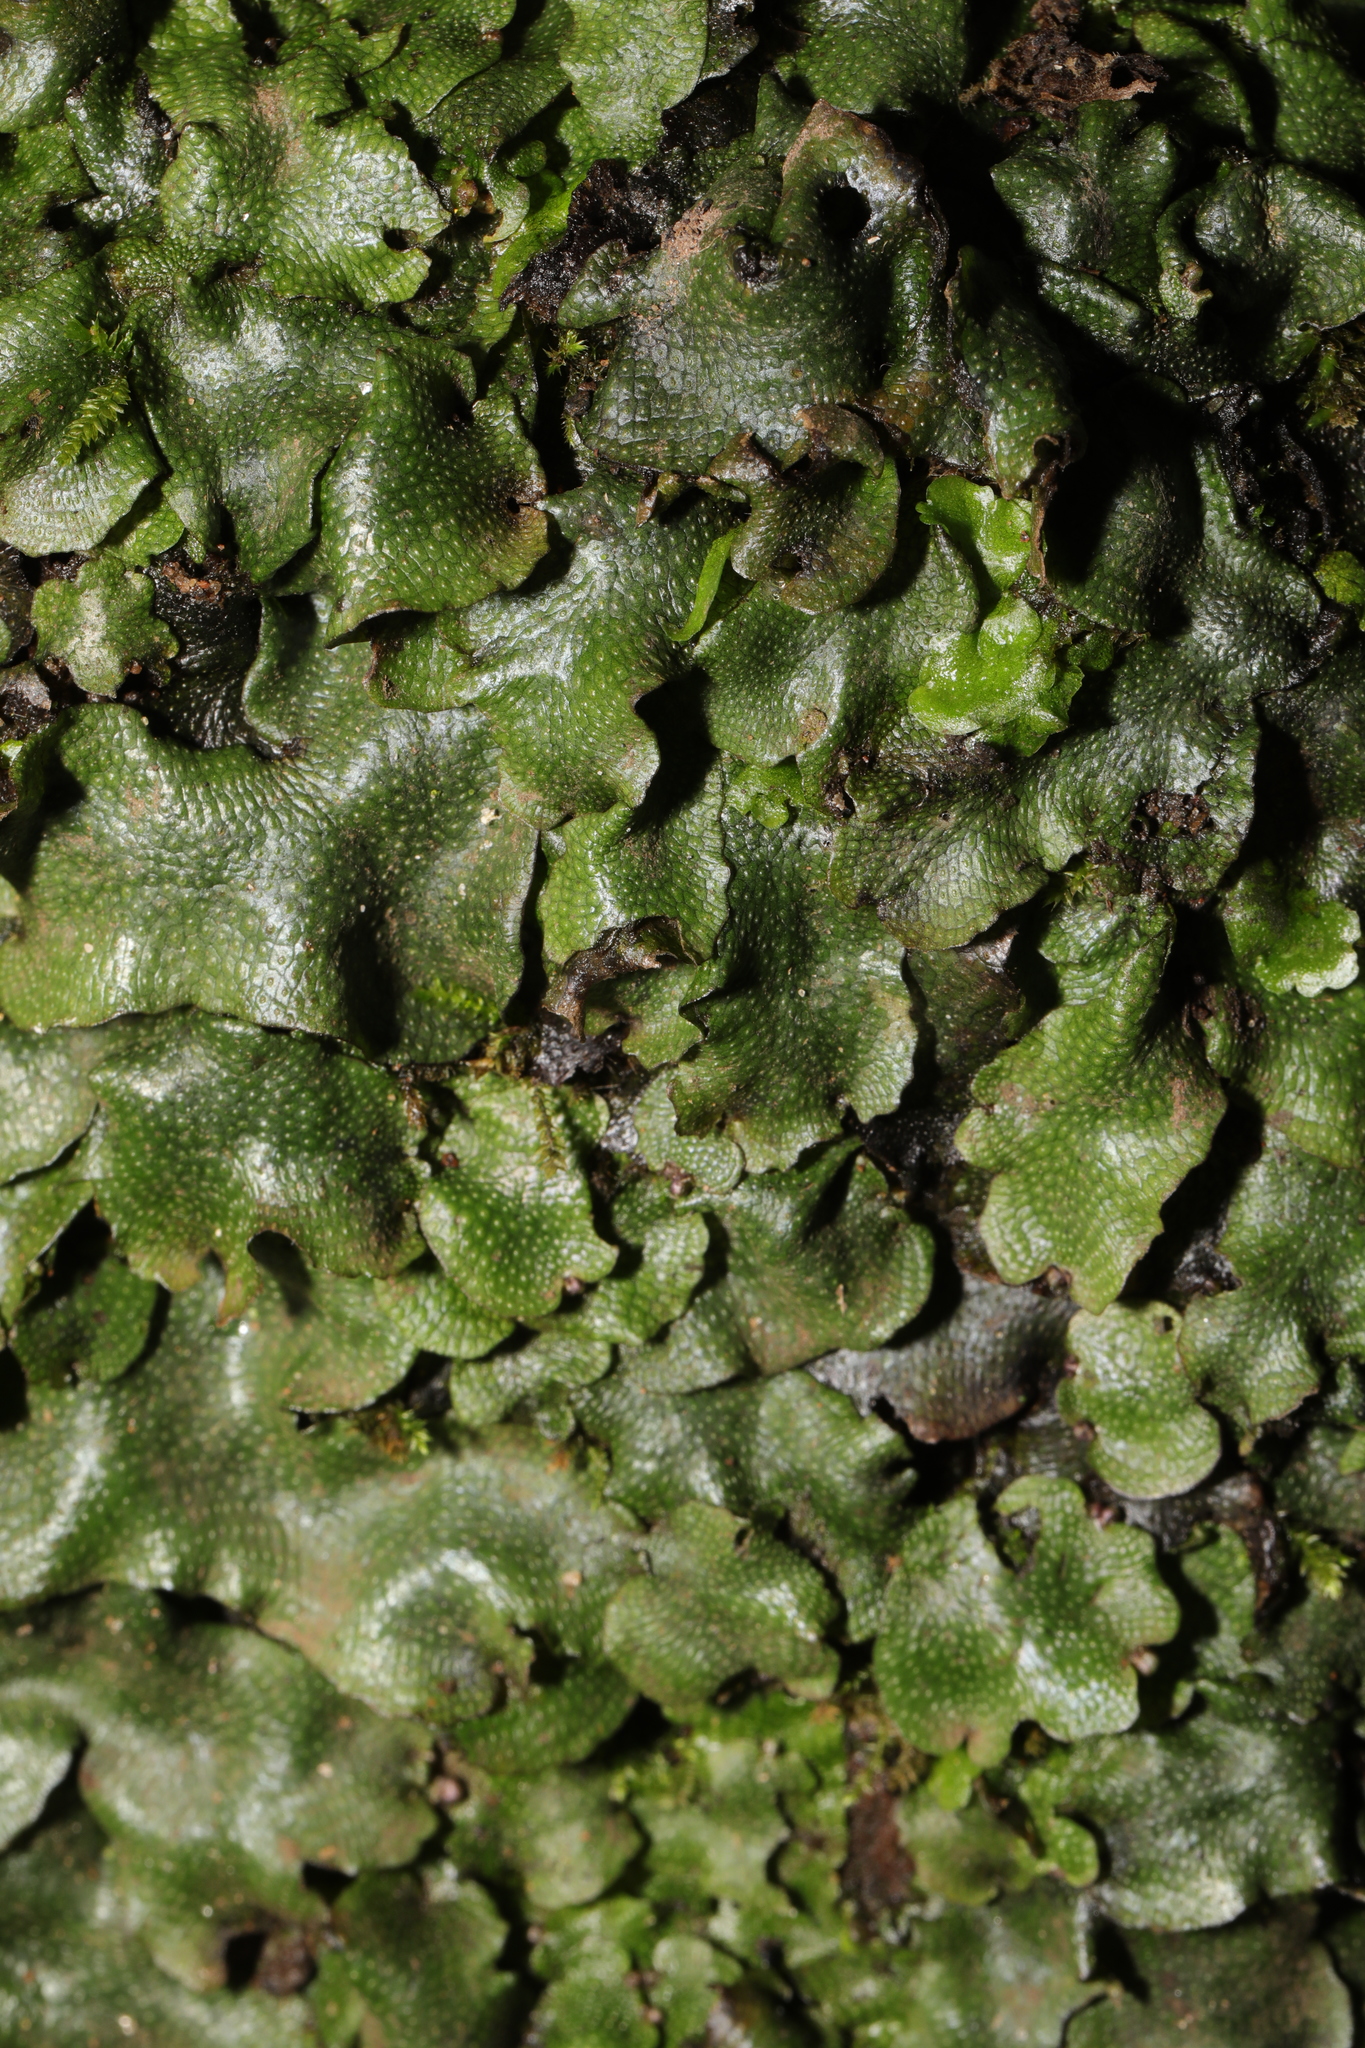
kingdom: Plantae
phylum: Marchantiophyta
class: Marchantiopsida
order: Marchantiales
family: Conocephalaceae
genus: Conocephalum
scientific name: Conocephalum conicum
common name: Great scented liverwort
